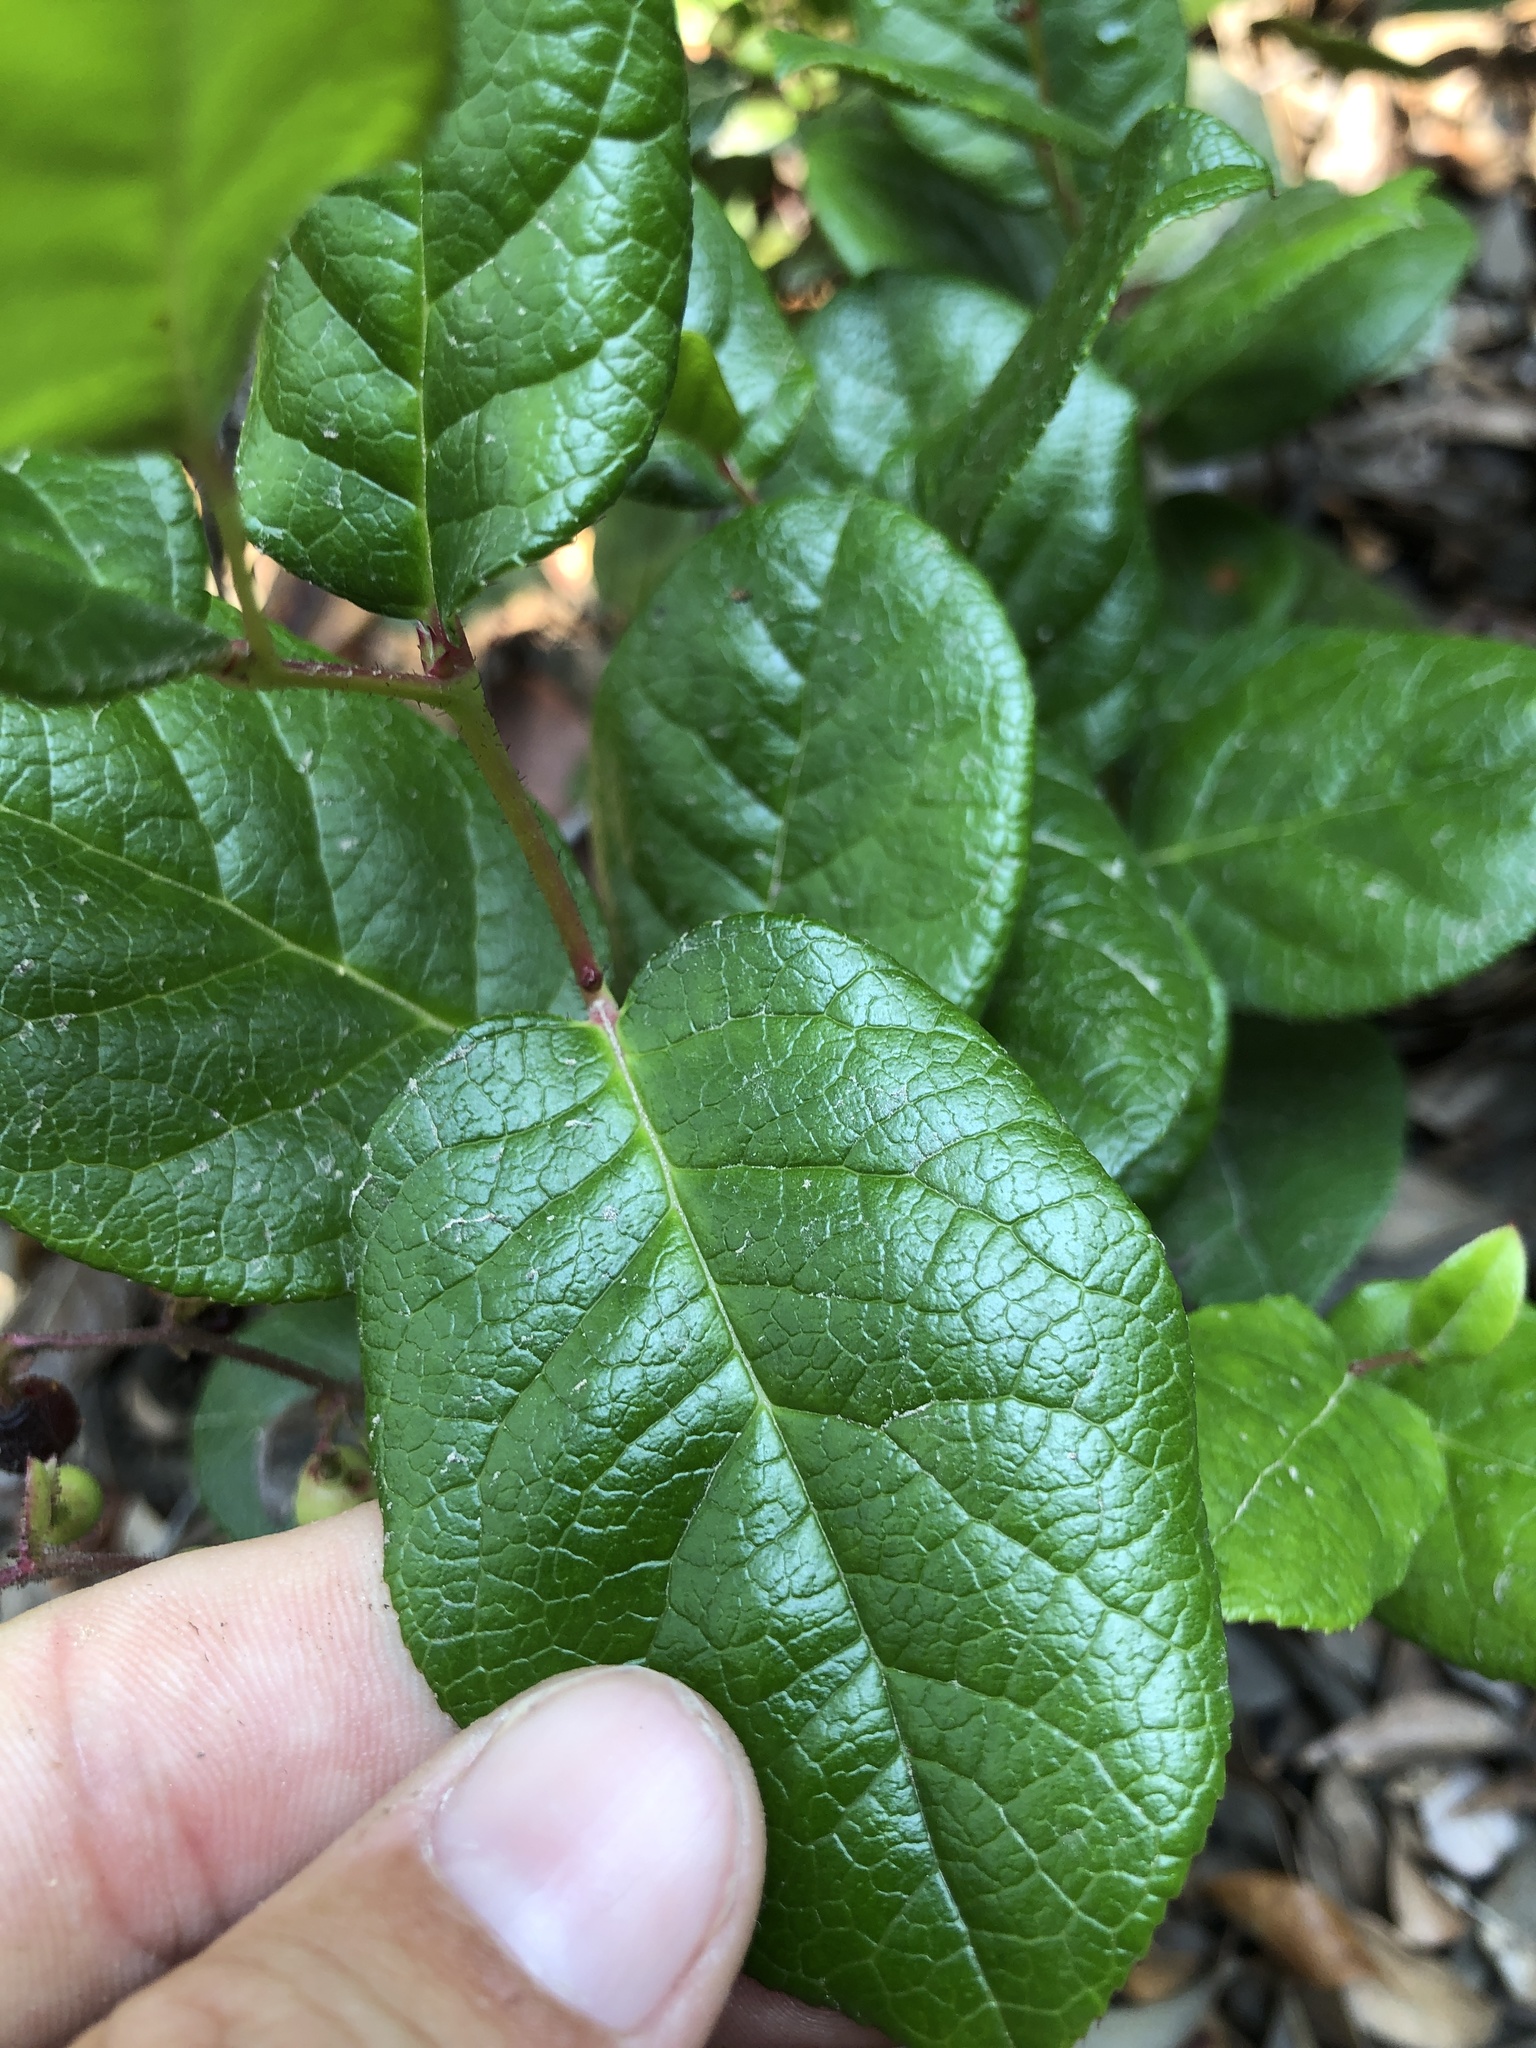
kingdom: Plantae
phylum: Tracheophyta
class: Magnoliopsida
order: Ericales
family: Ericaceae
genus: Gaultheria
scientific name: Gaultheria shallon
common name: Shallon
